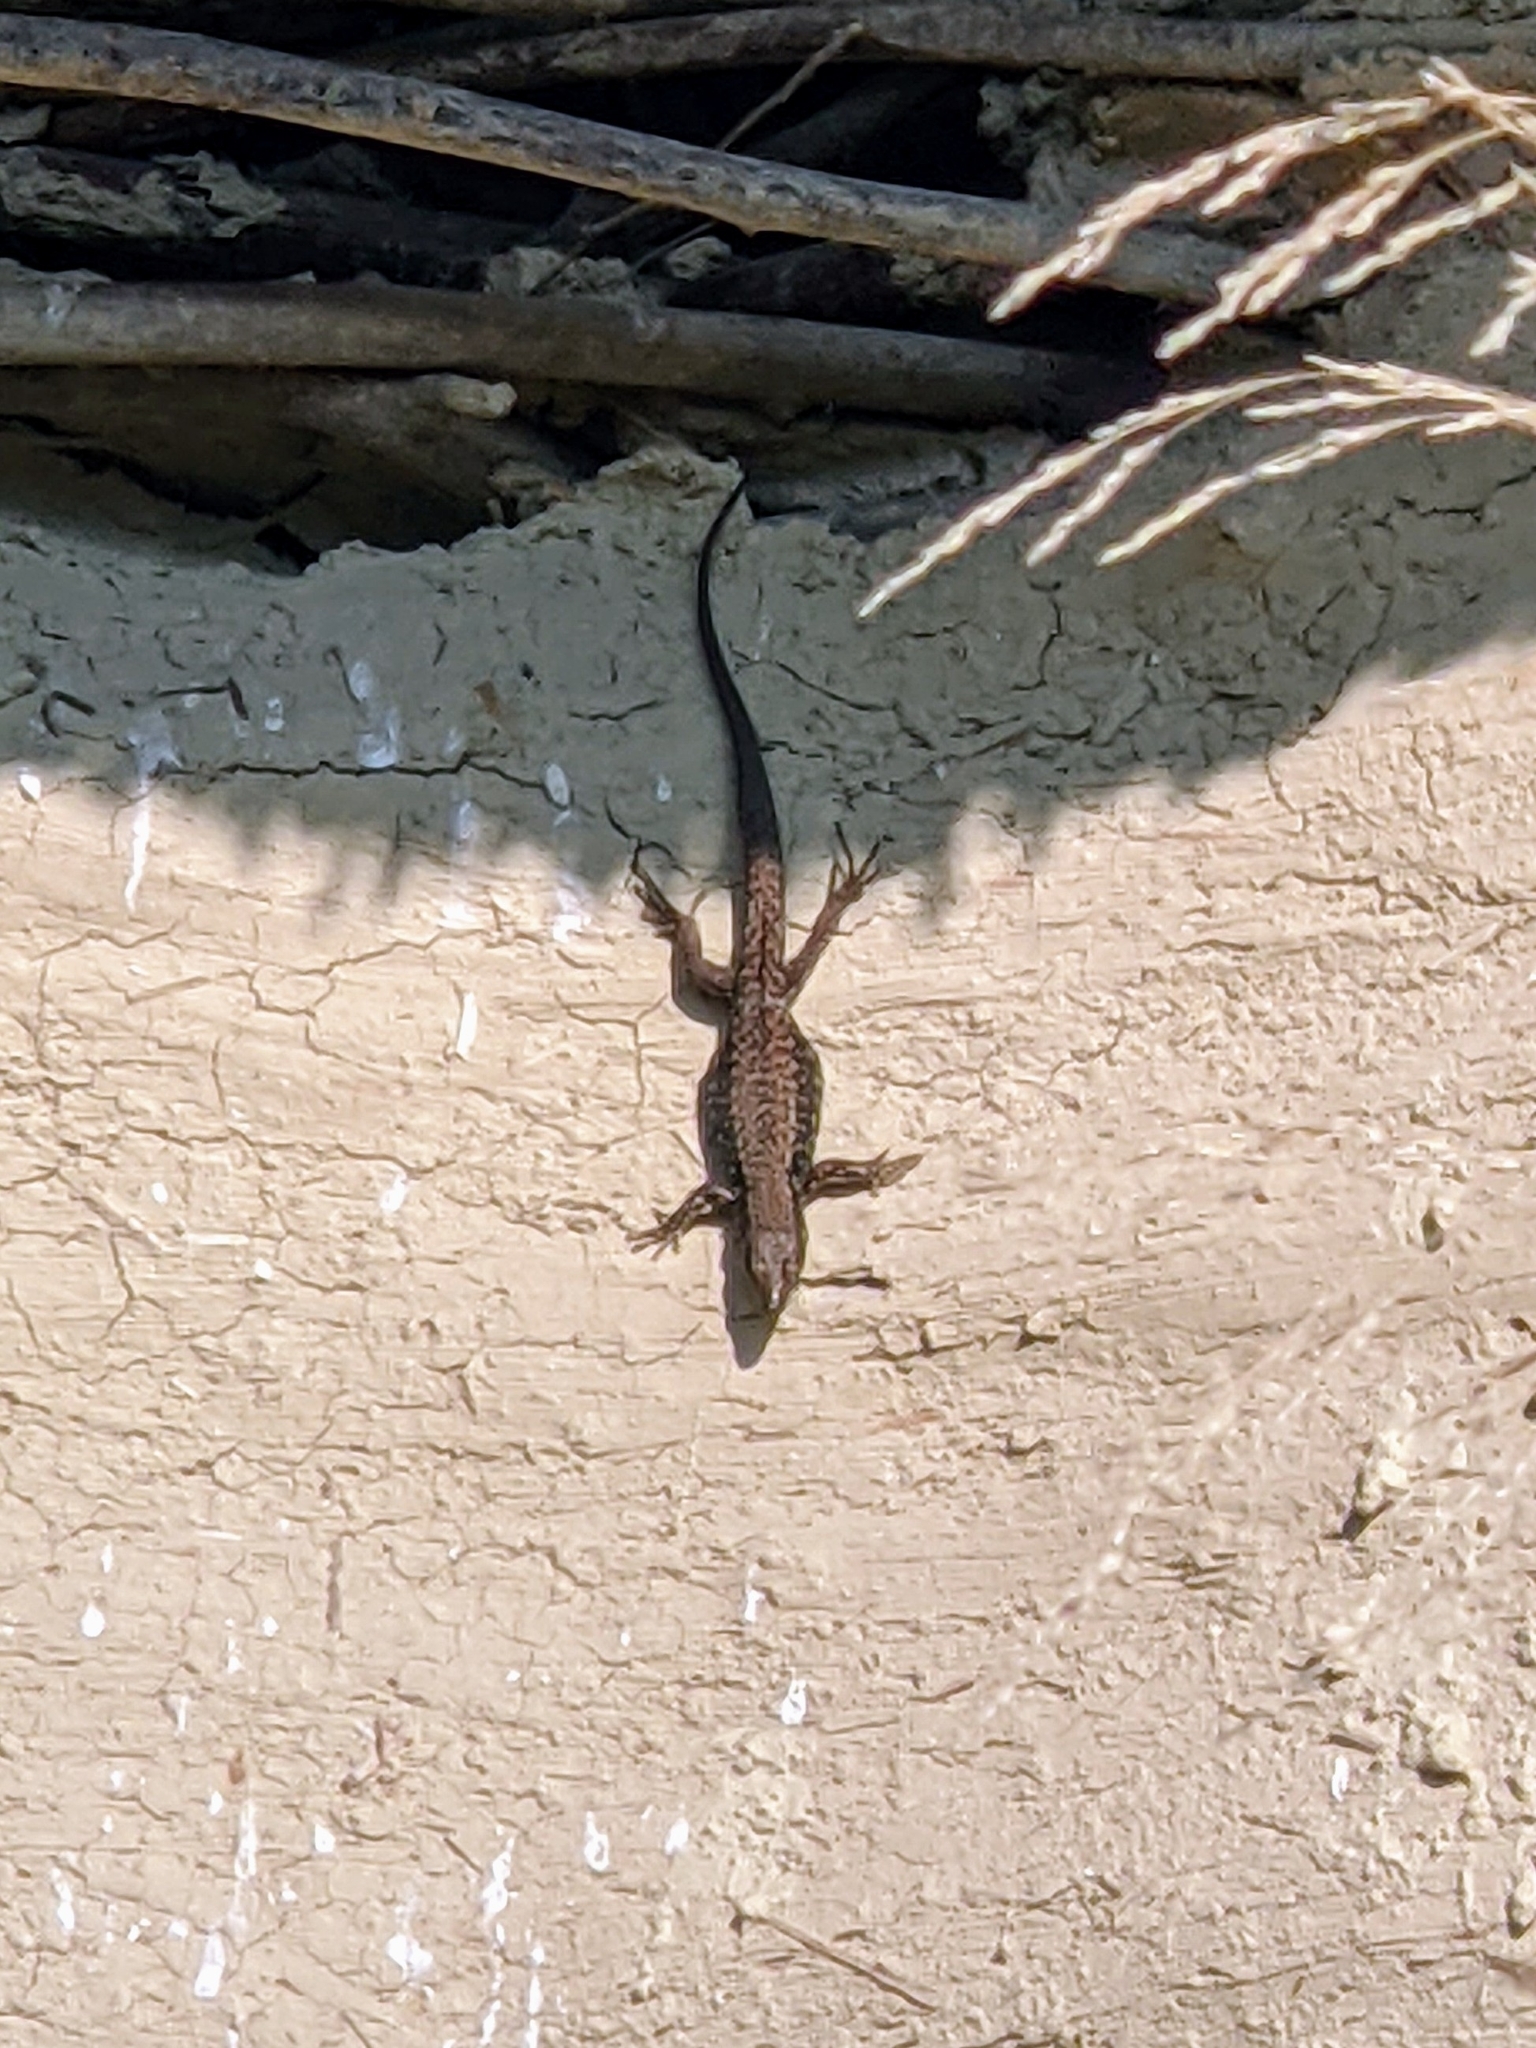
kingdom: Animalia
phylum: Chordata
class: Squamata
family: Lacertidae
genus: Podarcis
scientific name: Podarcis muralis
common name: Common wall lizard
